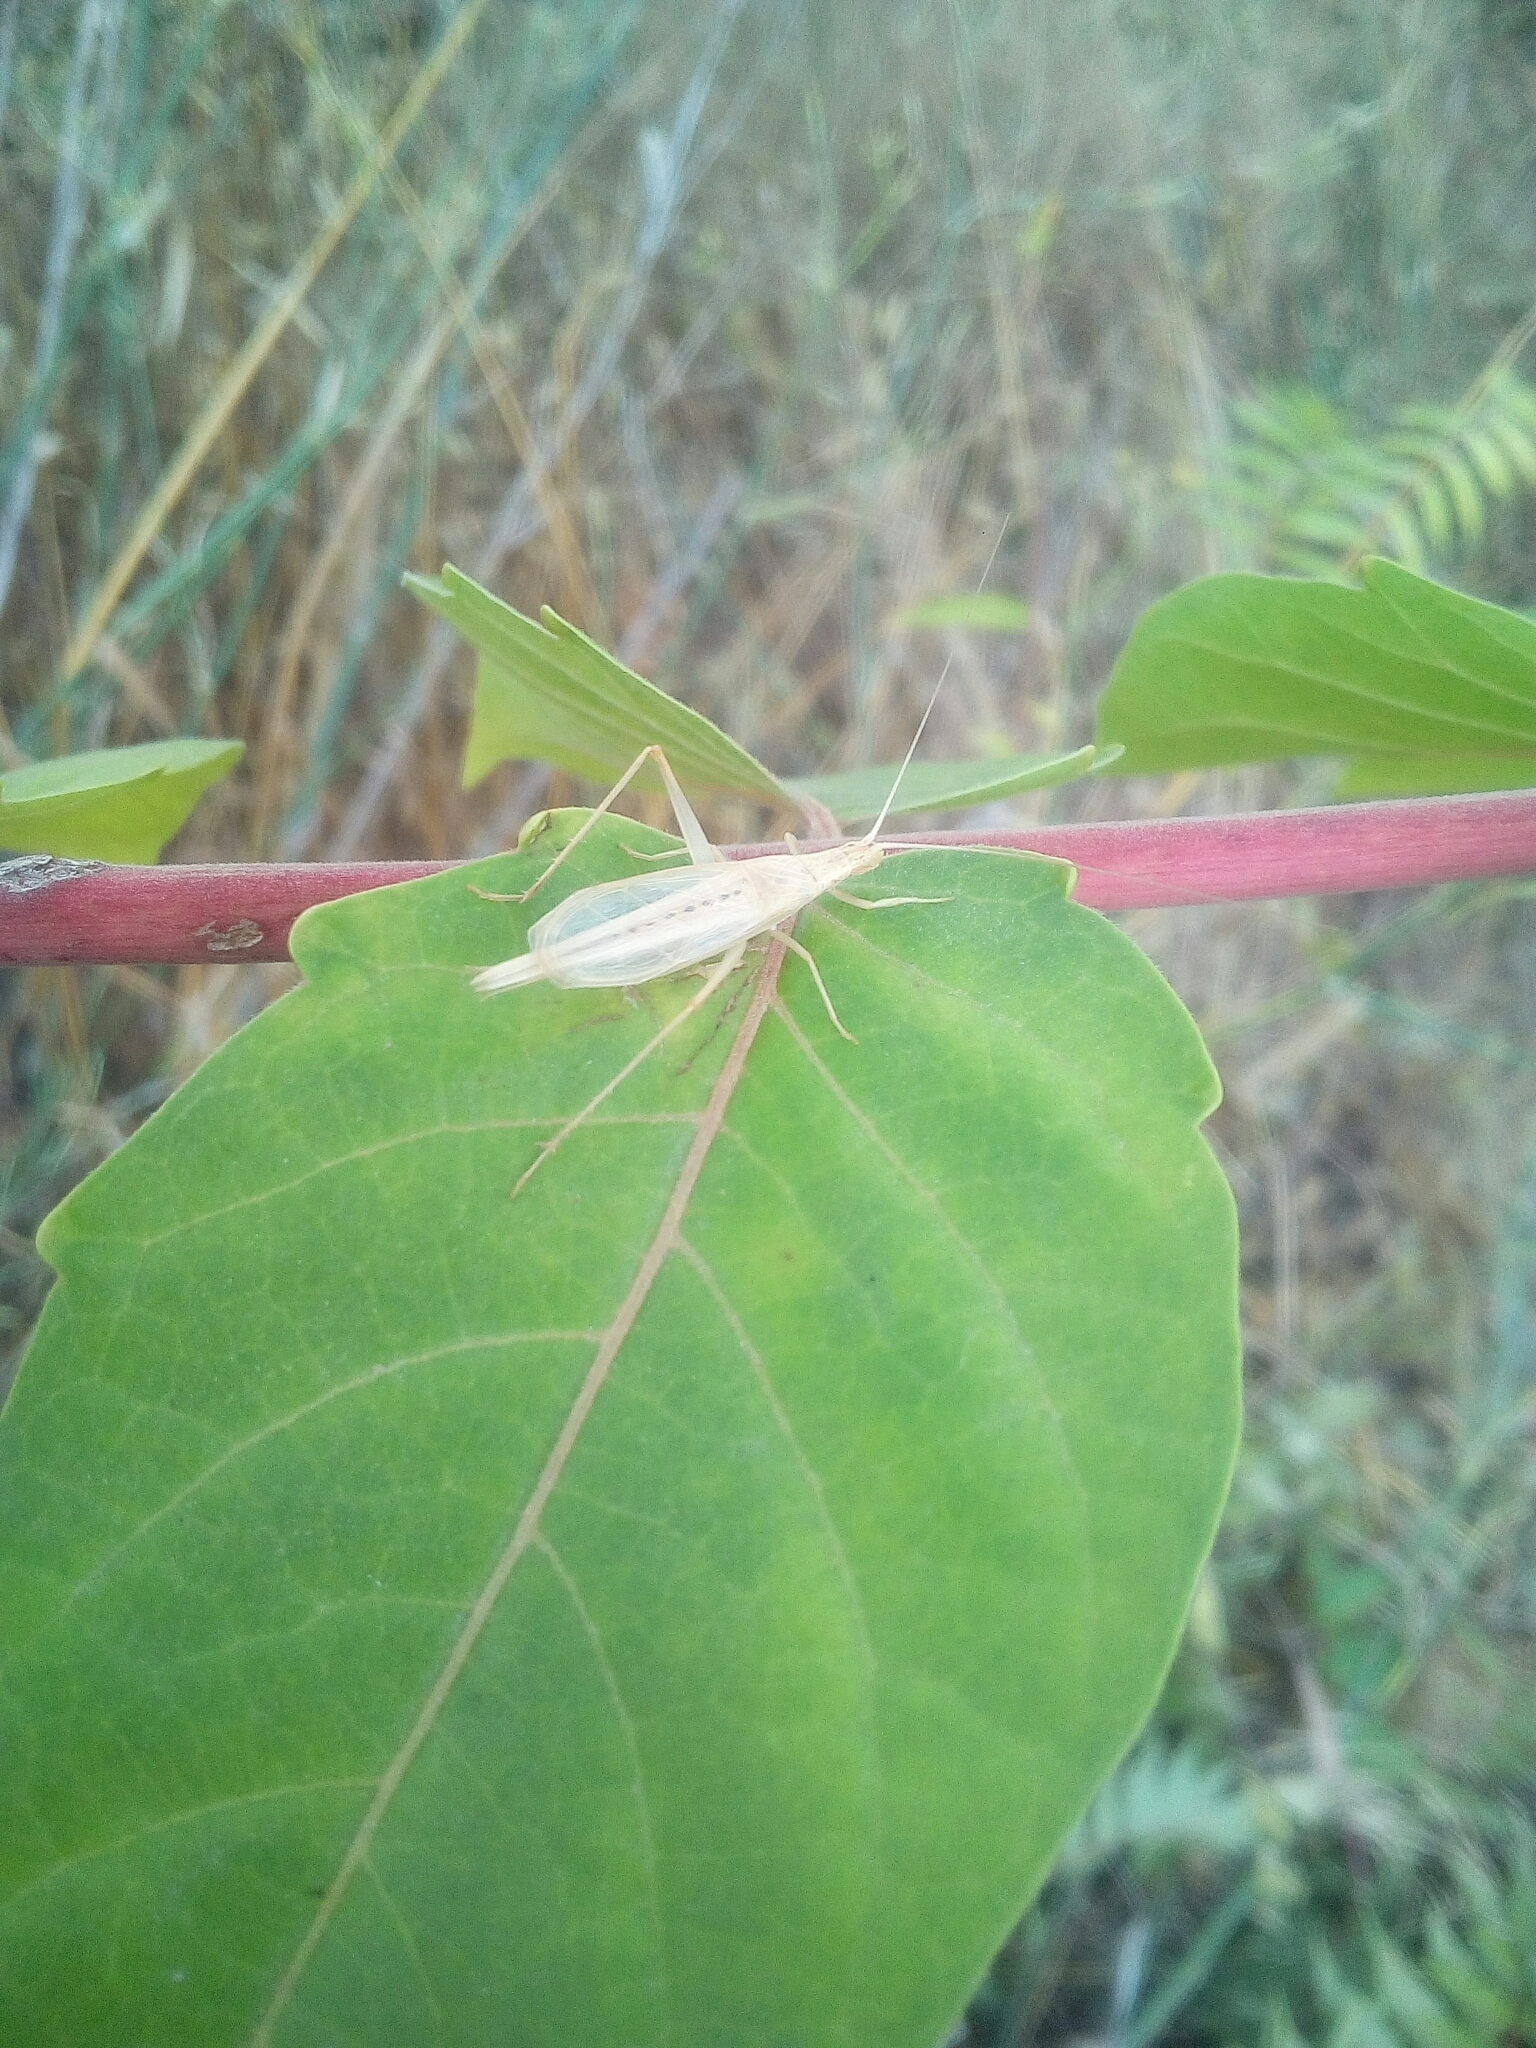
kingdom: Animalia
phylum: Arthropoda
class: Insecta
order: Orthoptera
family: Gryllidae
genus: Oecanthus
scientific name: Oecanthus dulcisonans
